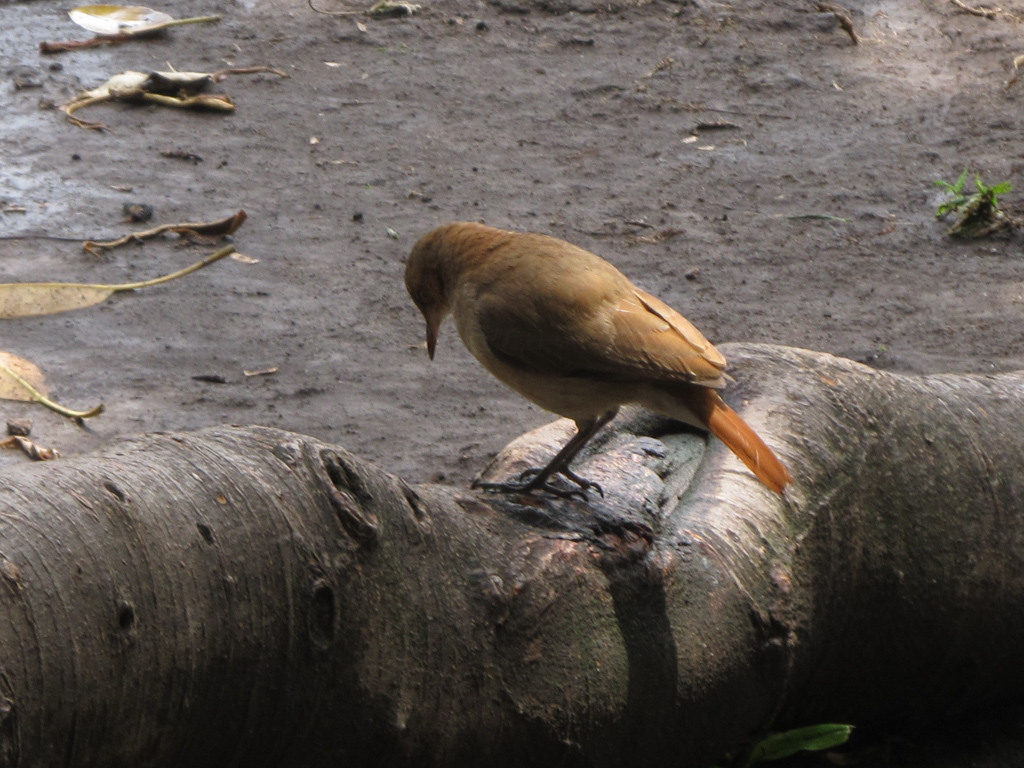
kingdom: Animalia
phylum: Chordata
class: Aves
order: Passeriformes
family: Furnariidae
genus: Furnarius
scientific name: Furnarius rufus
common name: Rufous hornero
